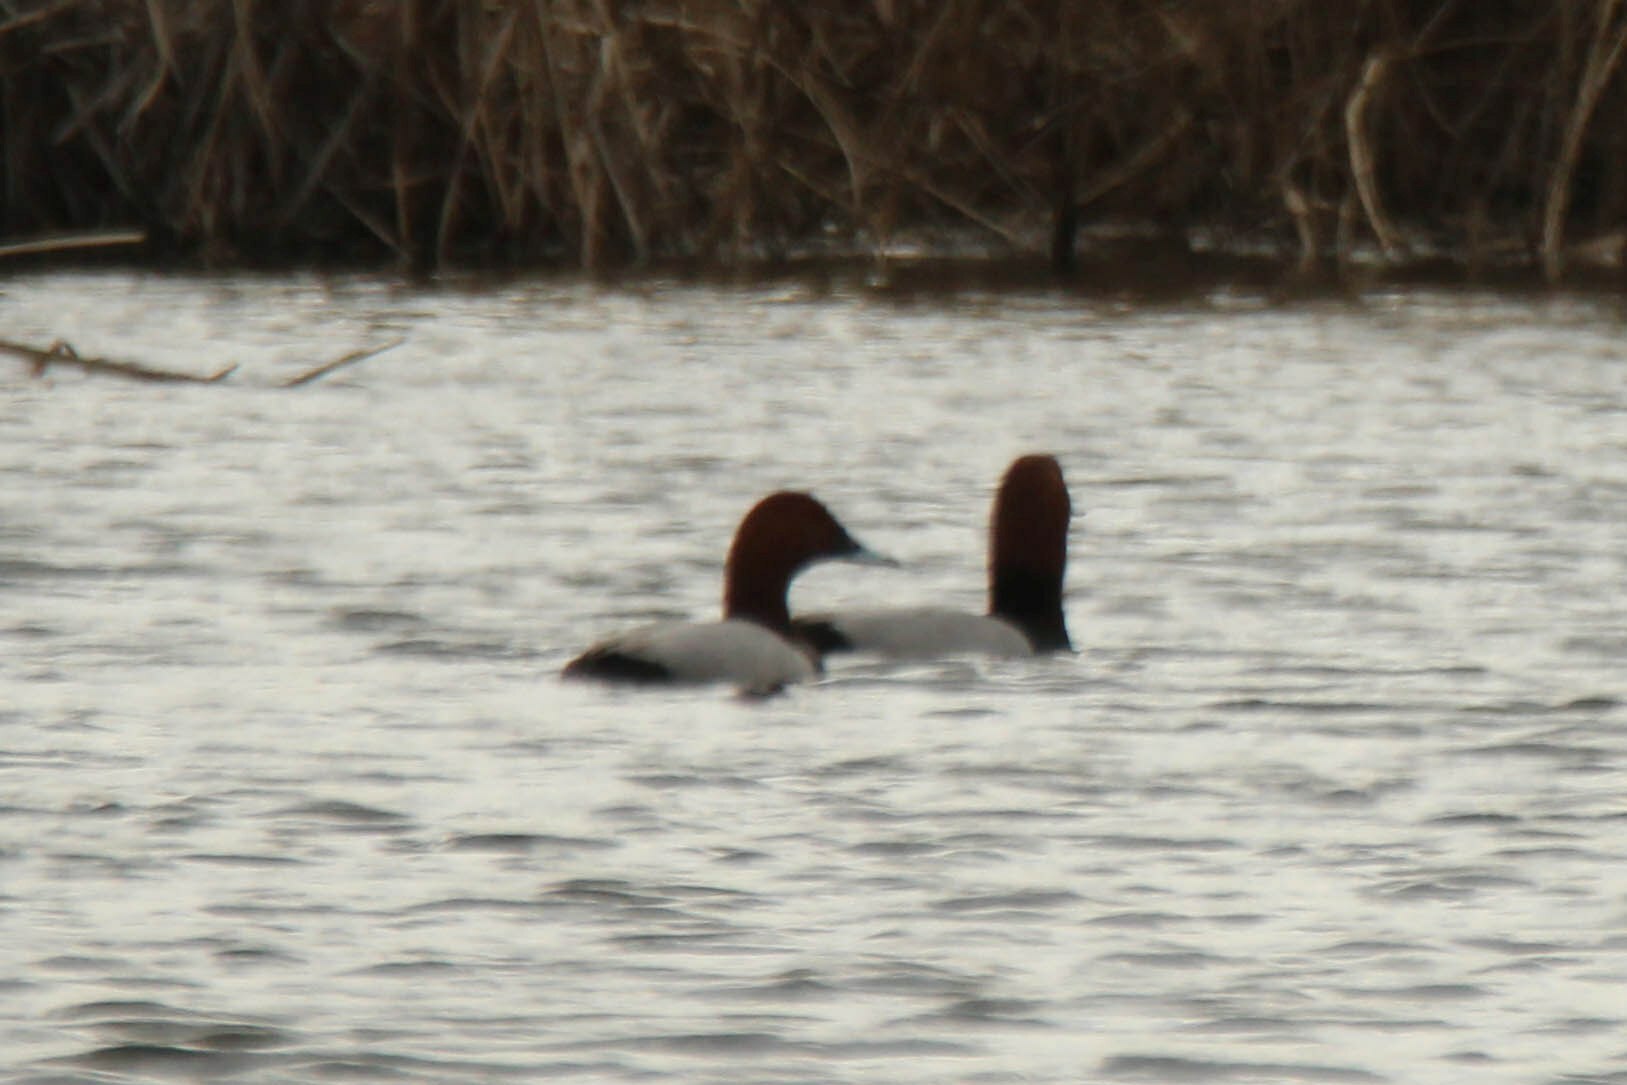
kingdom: Animalia
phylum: Chordata
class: Aves
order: Anseriformes
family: Anatidae
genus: Aythya
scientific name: Aythya ferina
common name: Common pochard
